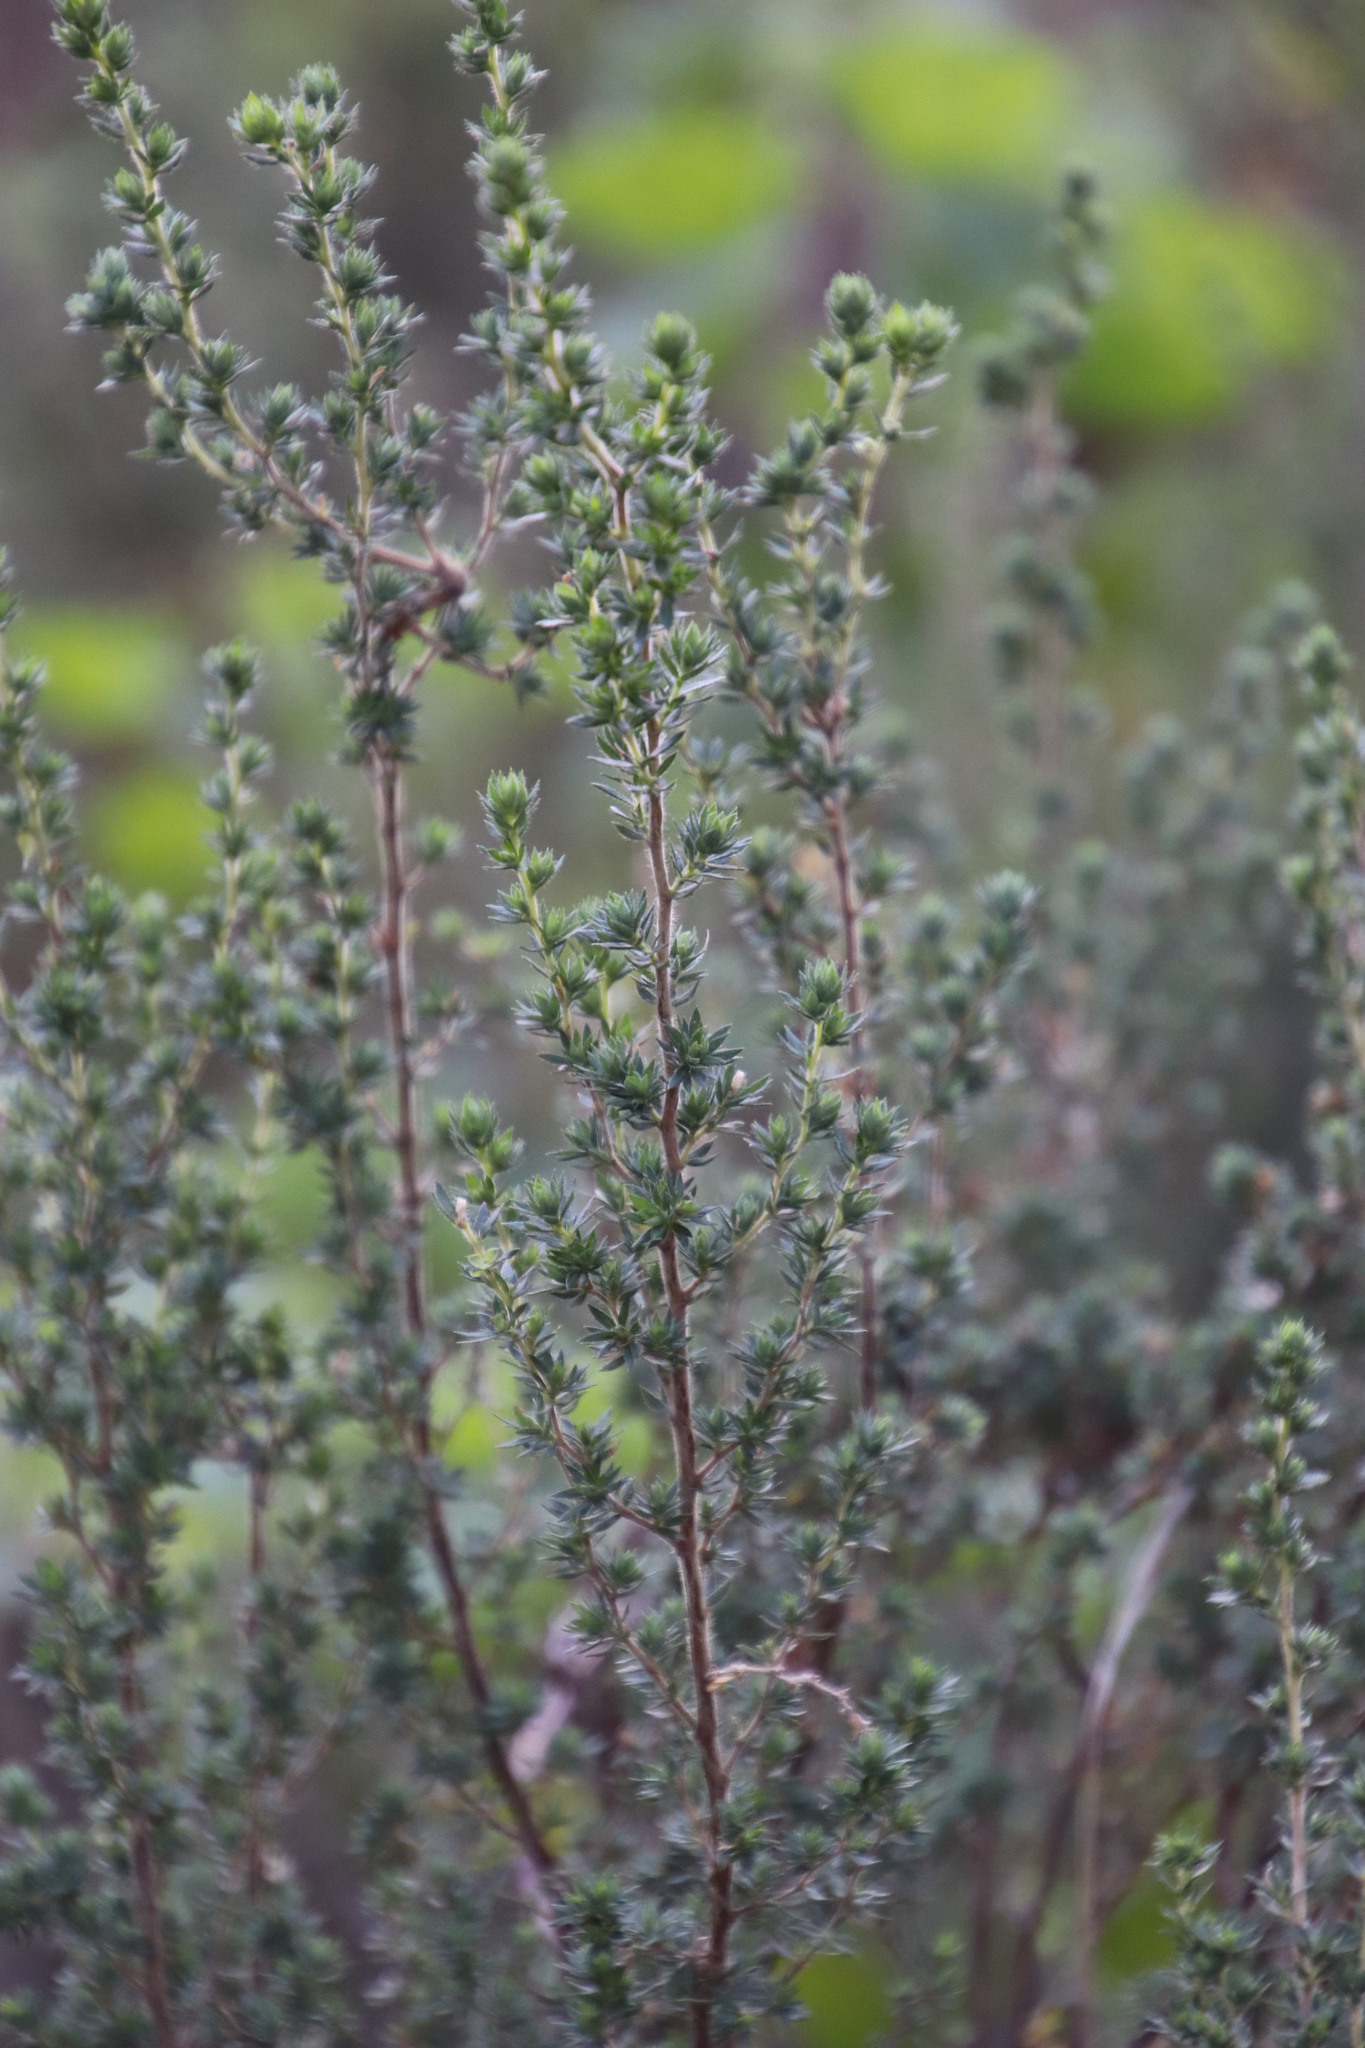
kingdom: Plantae
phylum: Tracheophyta
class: Magnoliopsida
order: Rosales
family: Rosaceae
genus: Cliffortia
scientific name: Cliffortia polygonifolia
